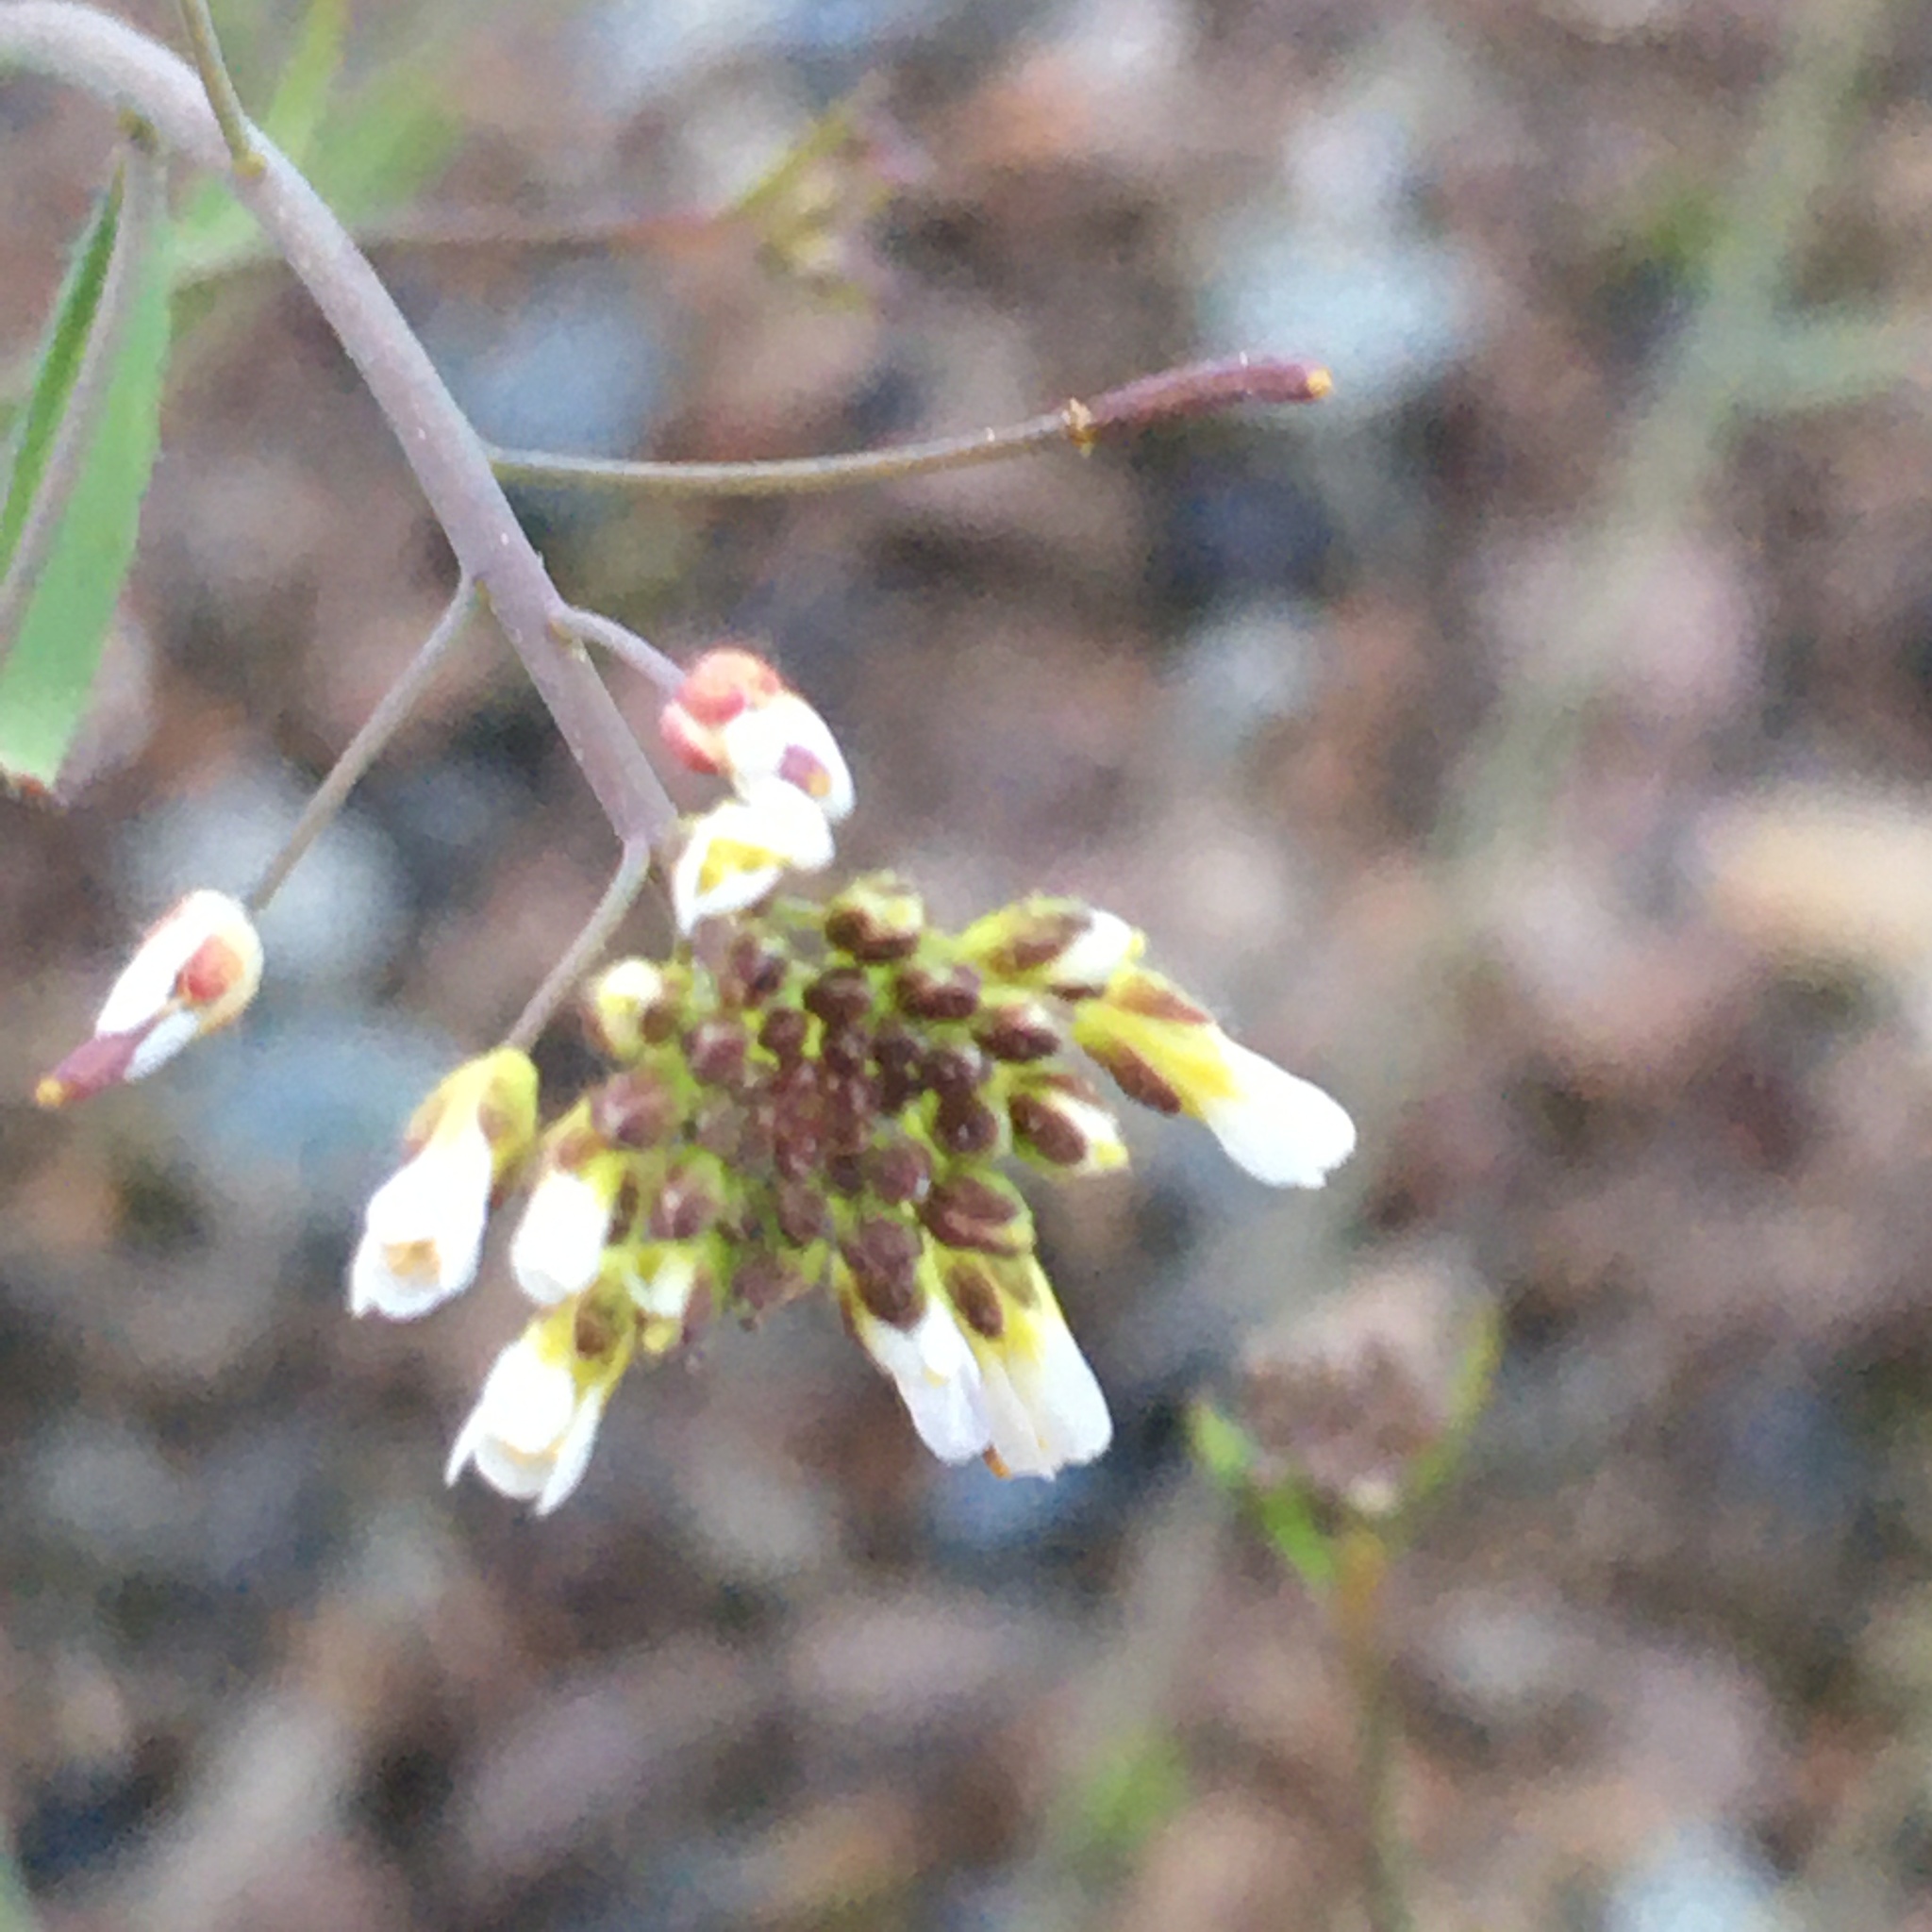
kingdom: Plantae
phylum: Tracheophyta
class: Magnoliopsida
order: Brassicales
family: Brassicaceae
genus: Arabidopsis
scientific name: Arabidopsis thaliana
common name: Thale cress
